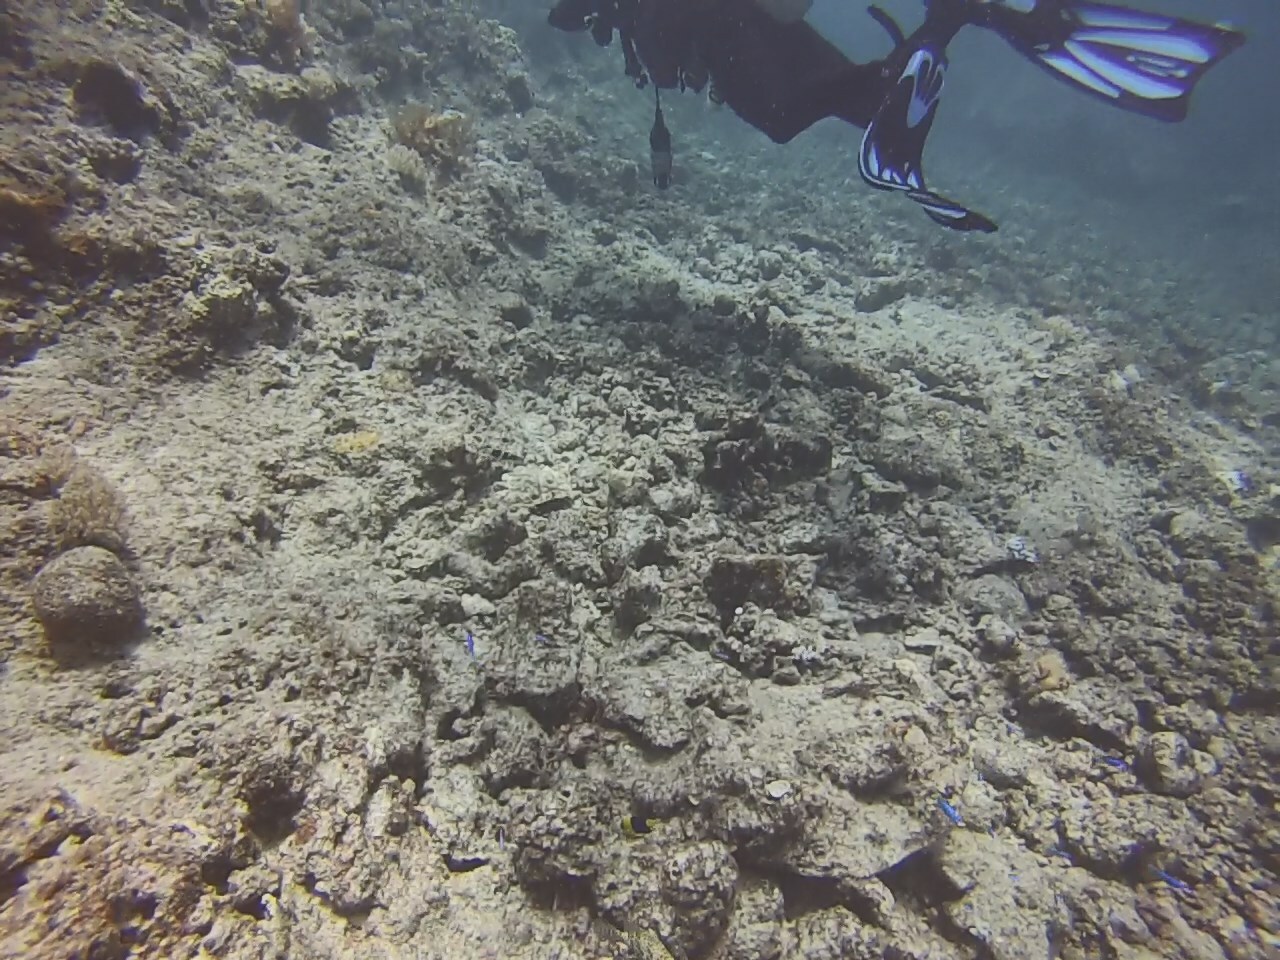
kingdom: Animalia
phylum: Chordata
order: Perciformes
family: Pomacanthidae
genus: Centropyge
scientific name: Centropyge bicolor
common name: Bicolor angelfish
